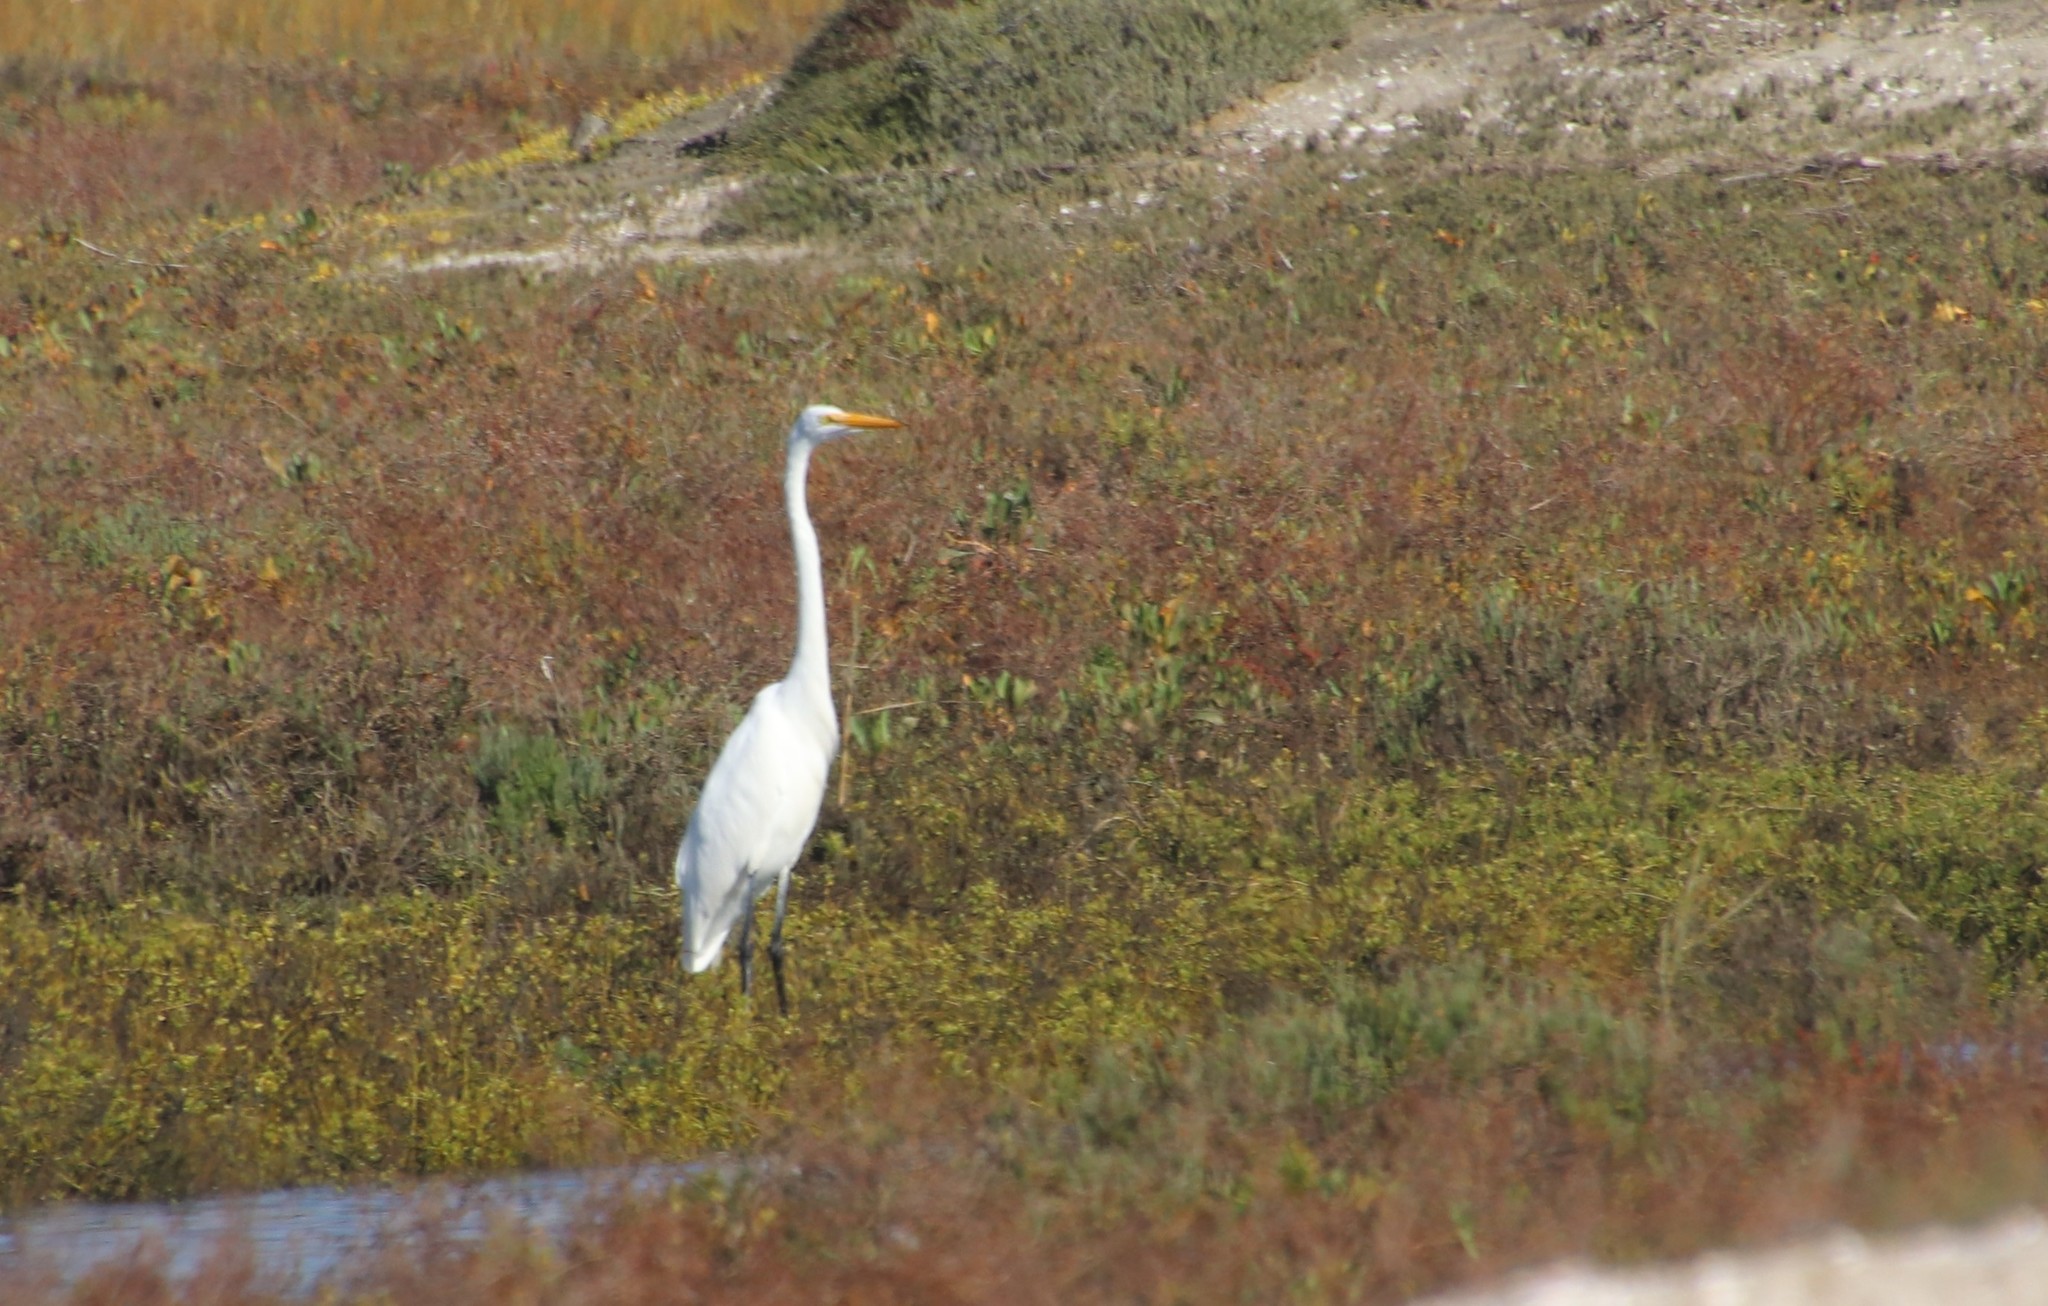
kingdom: Animalia
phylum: Chordata
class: Aves
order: Pelecaniformes
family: Ardeidae
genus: Ardea
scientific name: Ardea alba
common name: Great egret
